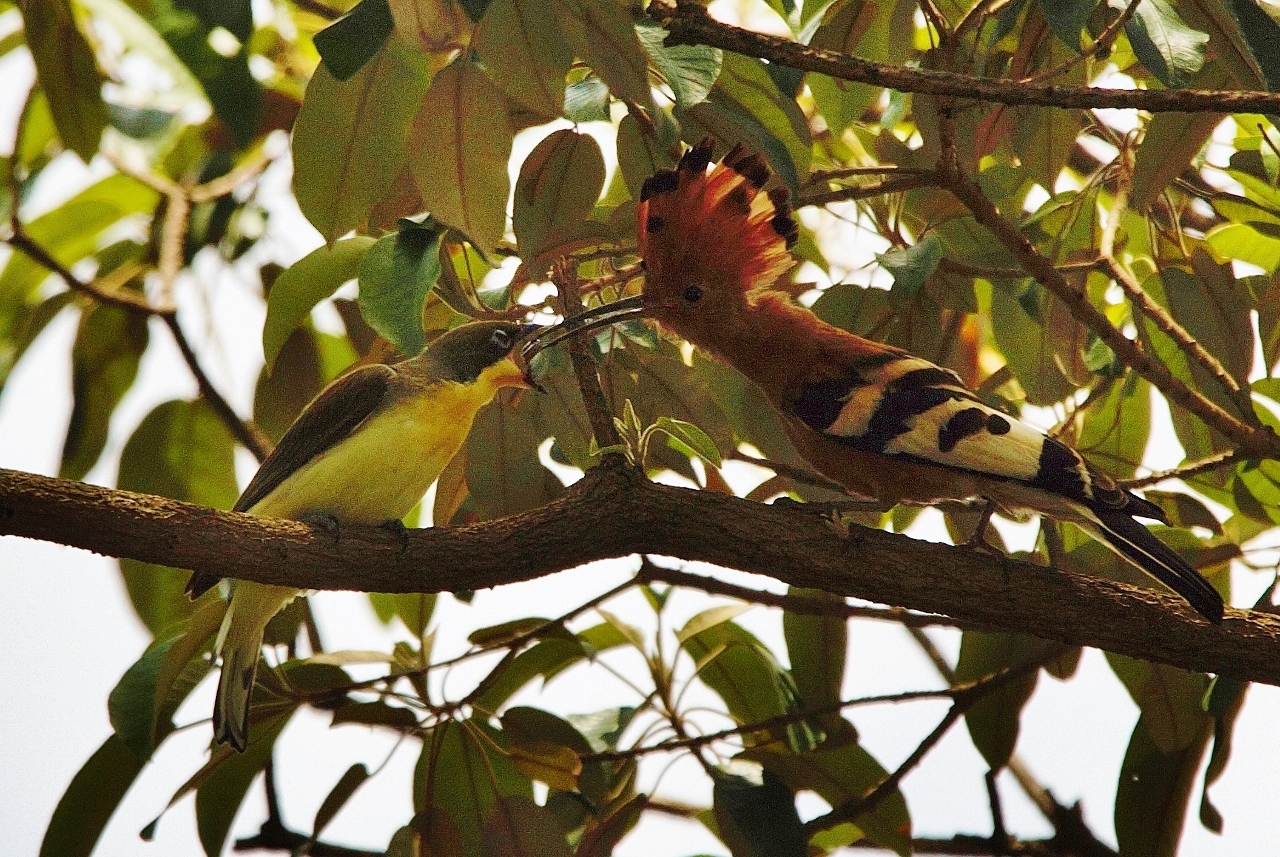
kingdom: Animalia
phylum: Chordata
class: Aves
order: Bucerotiformes
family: Upupidae
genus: Upupa
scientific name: Upupa africana
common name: African hoopoe
